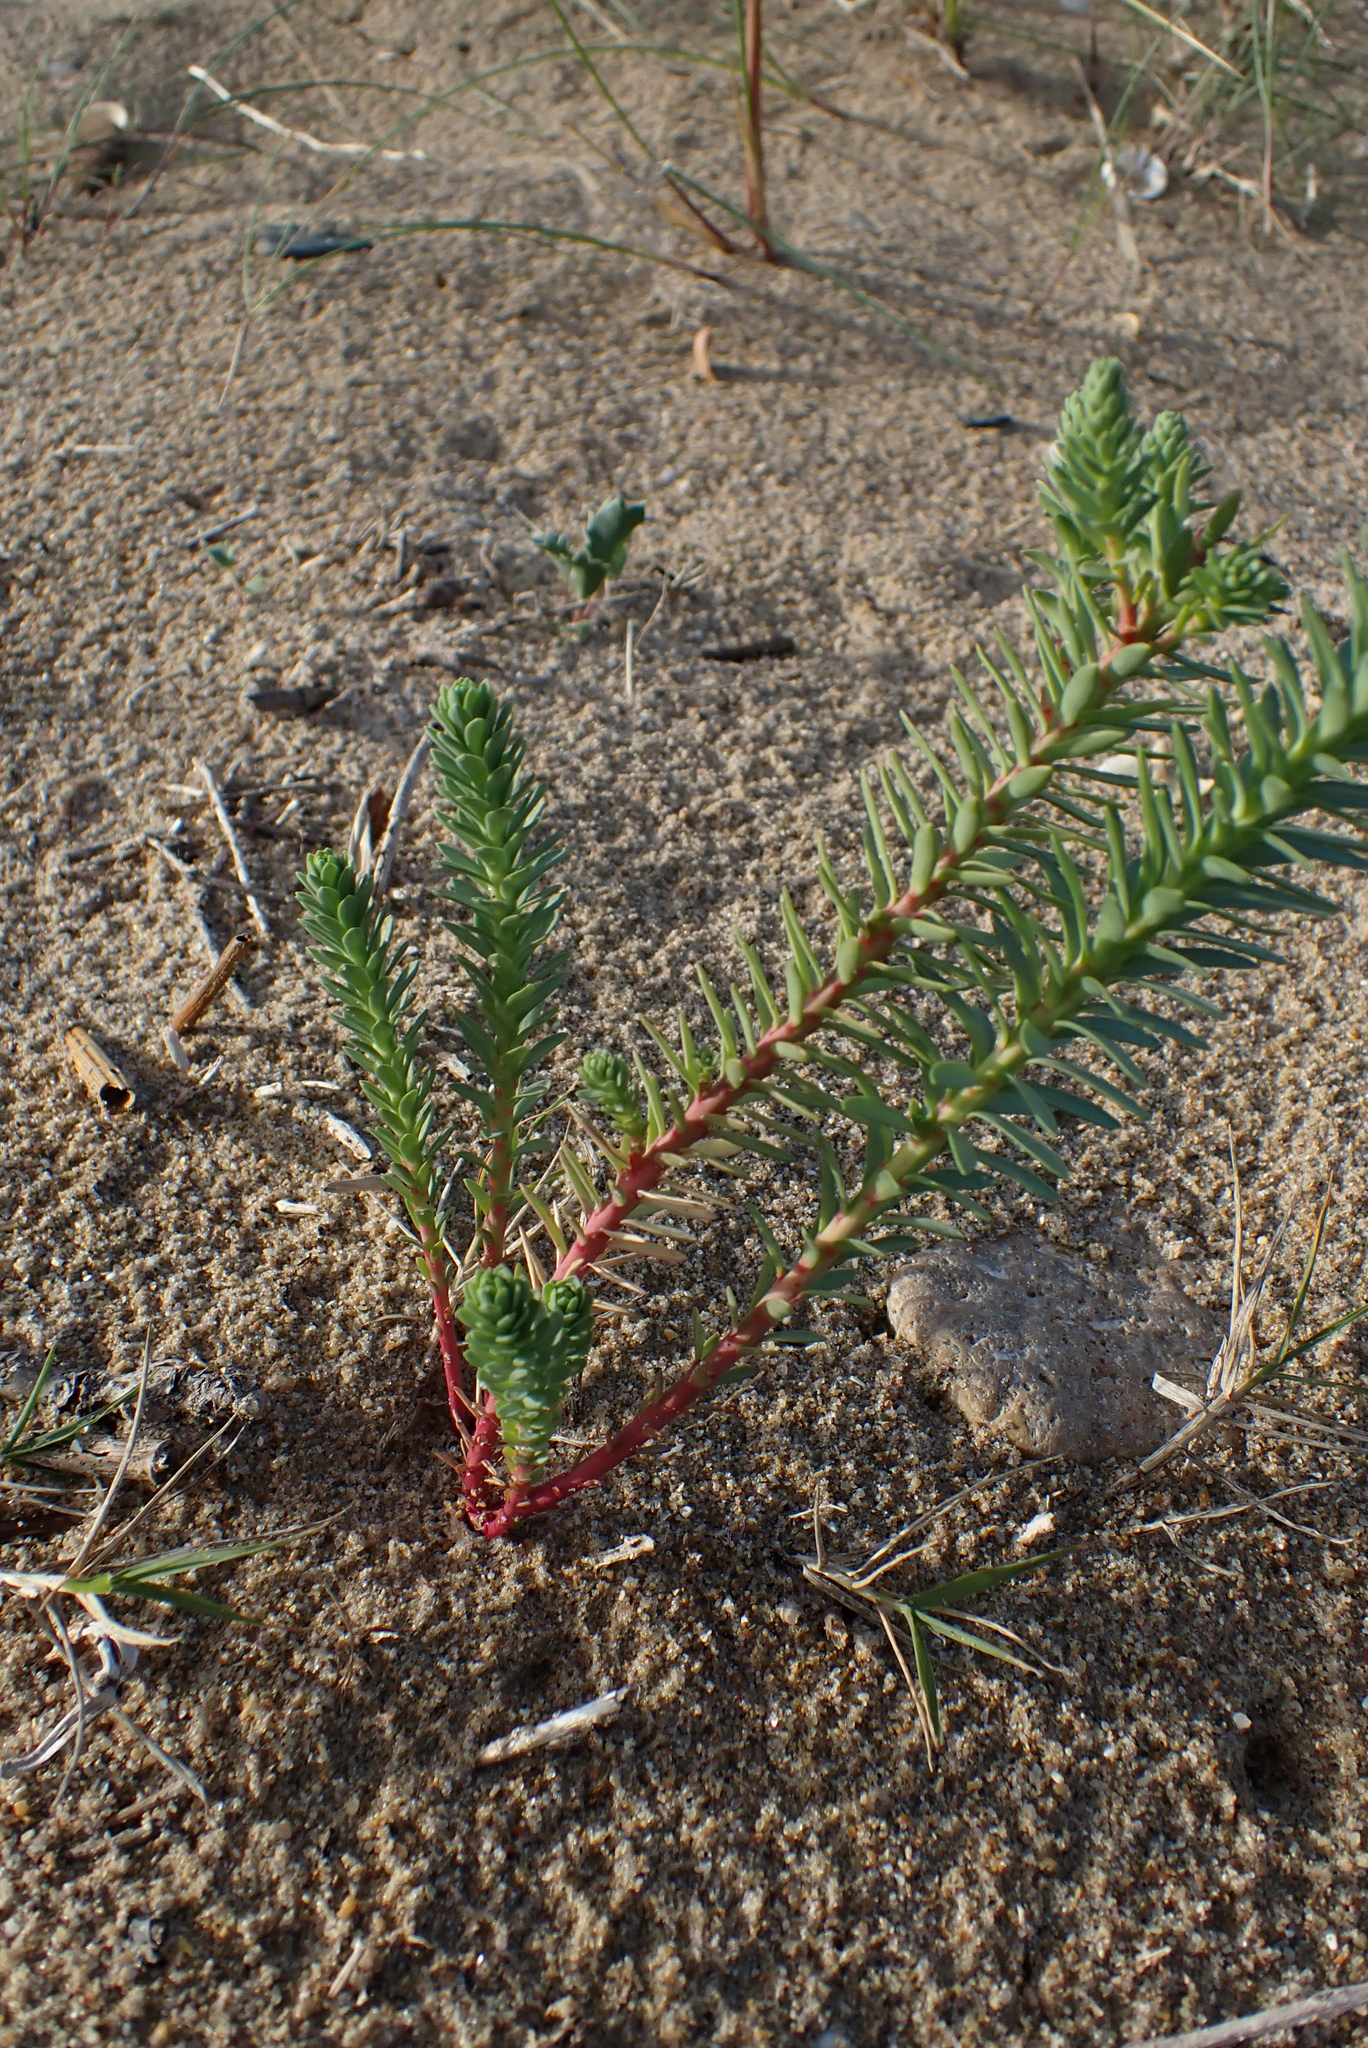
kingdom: Plantae
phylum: Tracheophyta
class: Magnoliopsida
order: Malpighiales
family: Euphorbiaceae
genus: Euphorbia
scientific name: Euphorbia paralias
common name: Sea spurge
